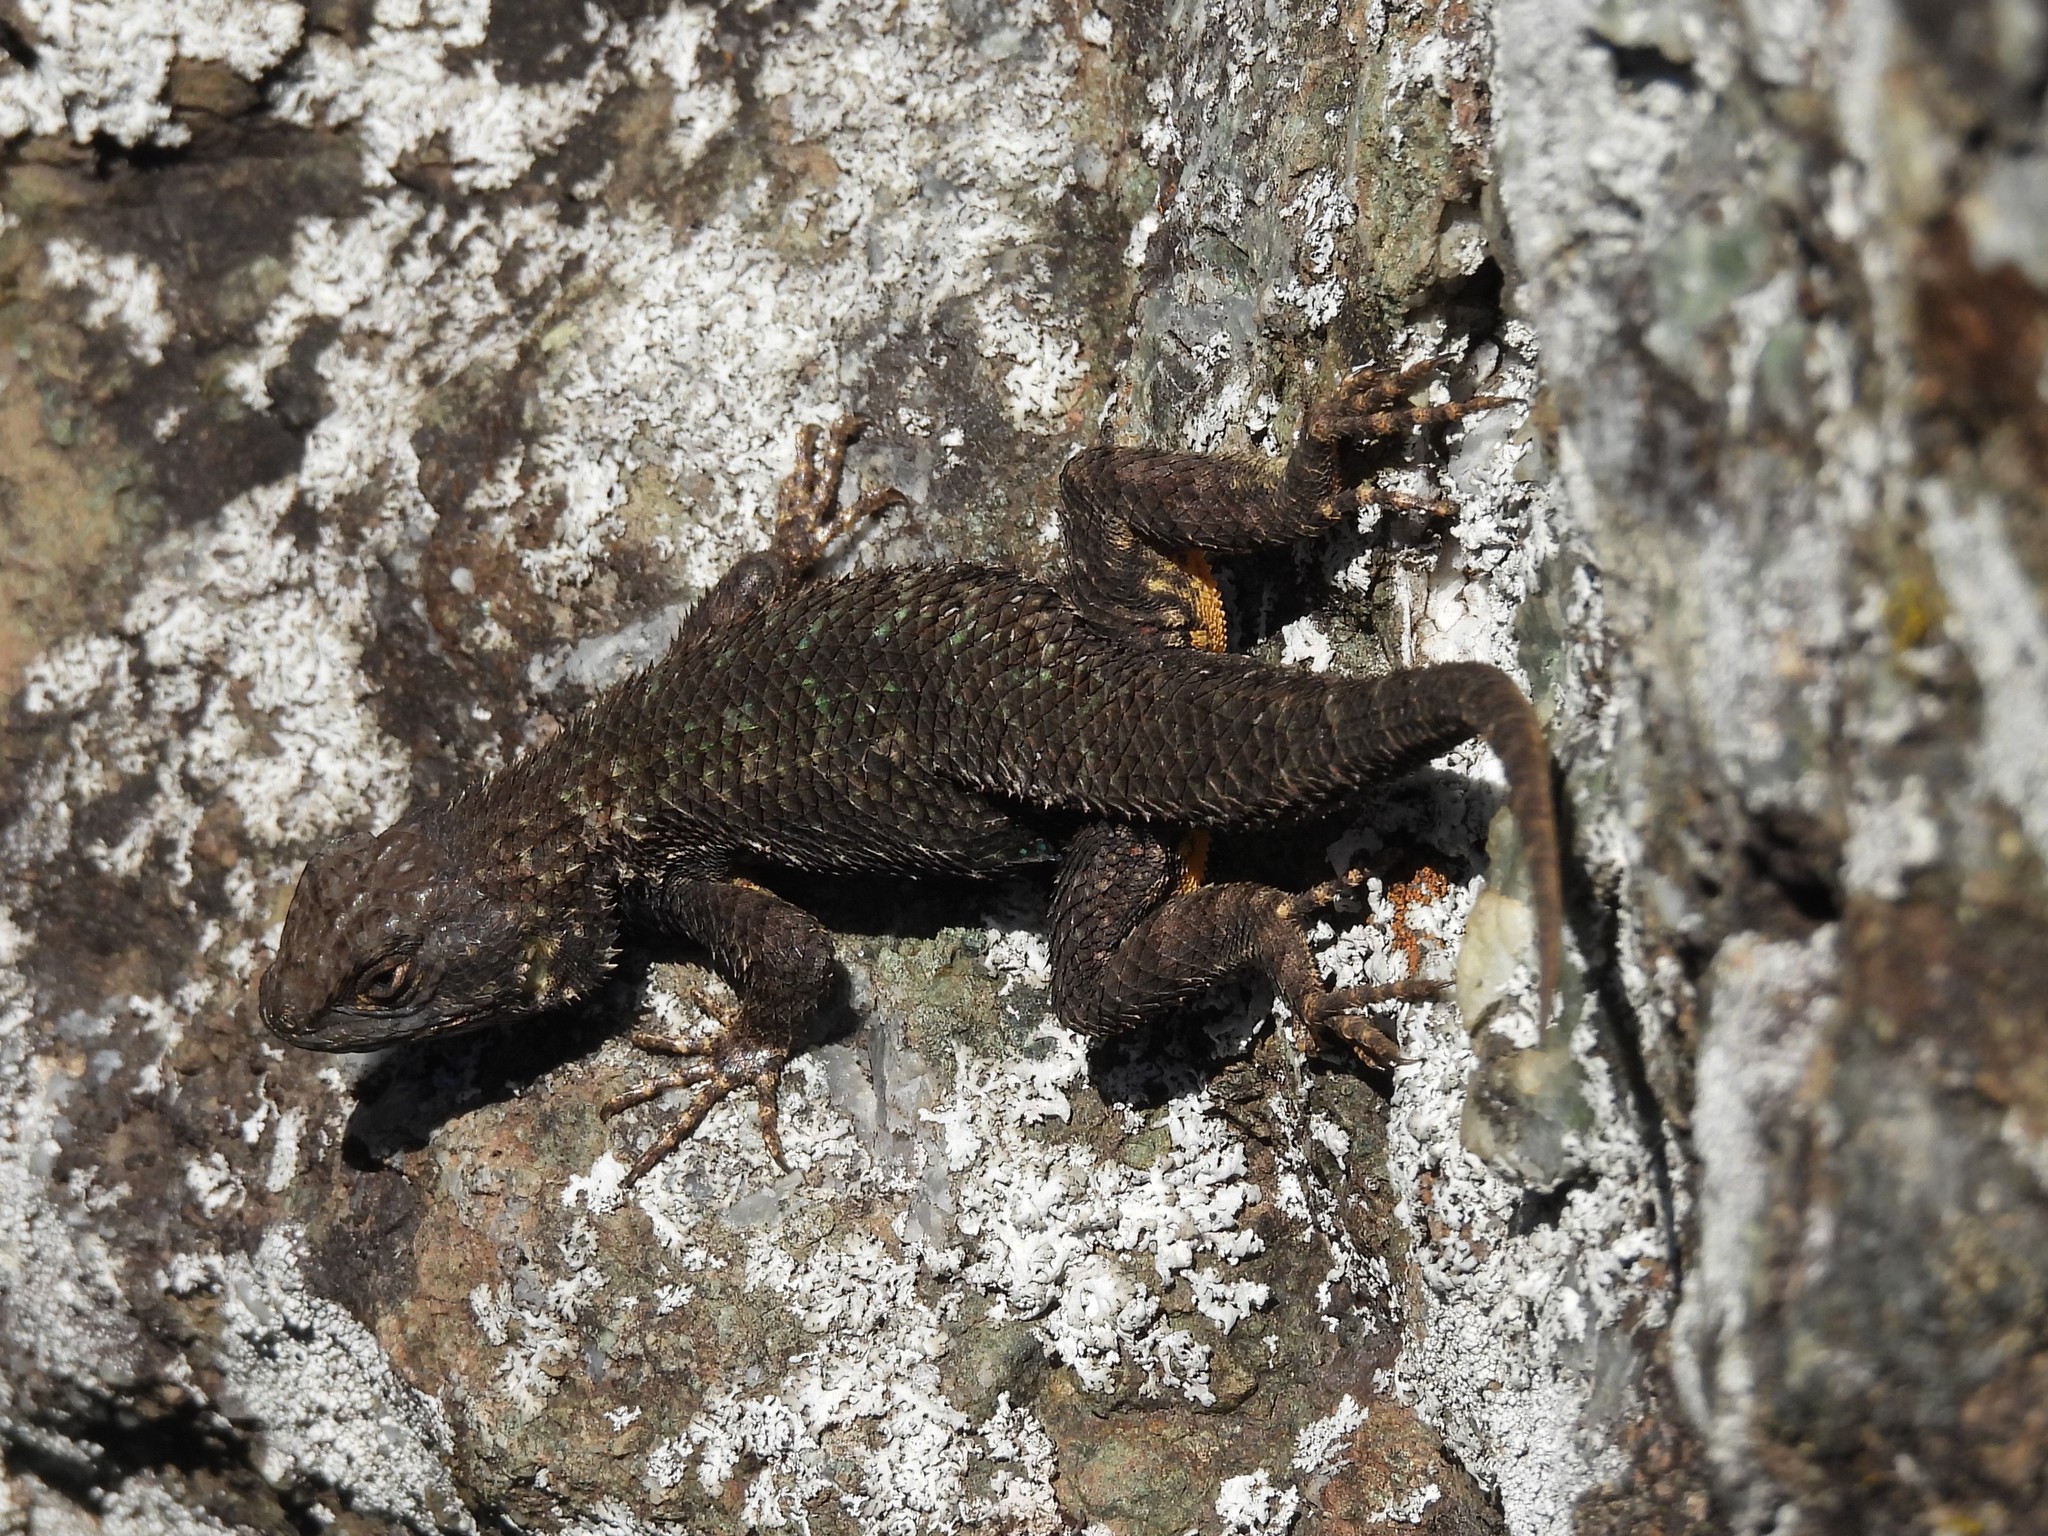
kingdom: Animalia
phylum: Chordata
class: Squamata
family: Phrynosomatidae
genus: Sceloporus
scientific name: Sceloporus occidentalis
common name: Western fence lizard
